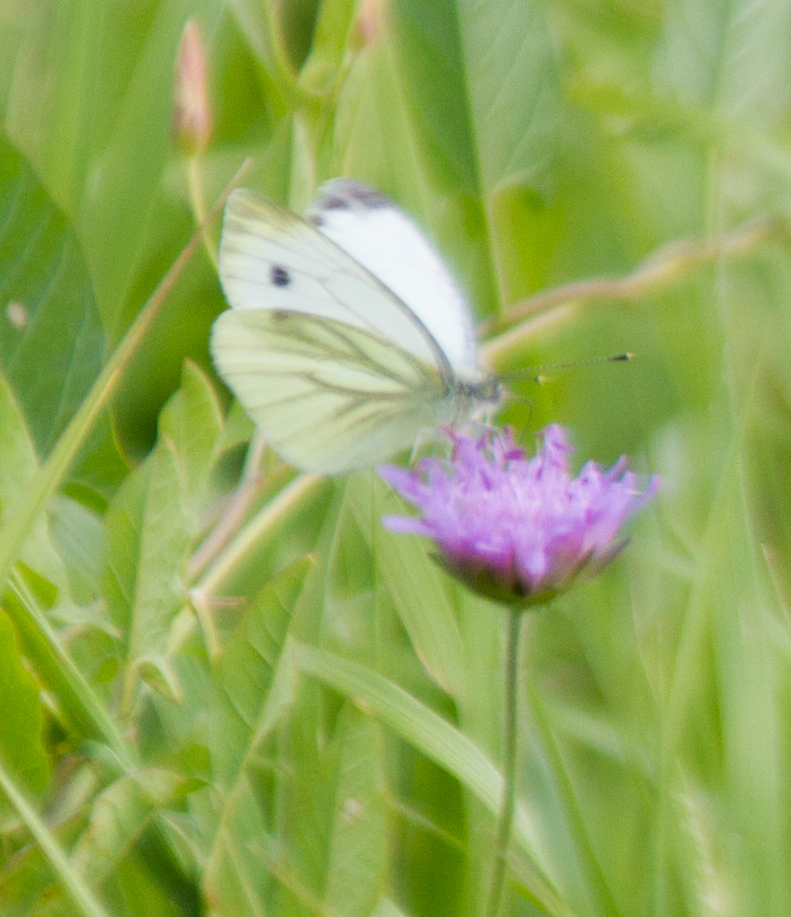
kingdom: Animalia
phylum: Arthropoda
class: Insecta
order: Lepidoptera
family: Pieridae
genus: Pieris
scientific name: Pieris napi
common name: Green-veined white
